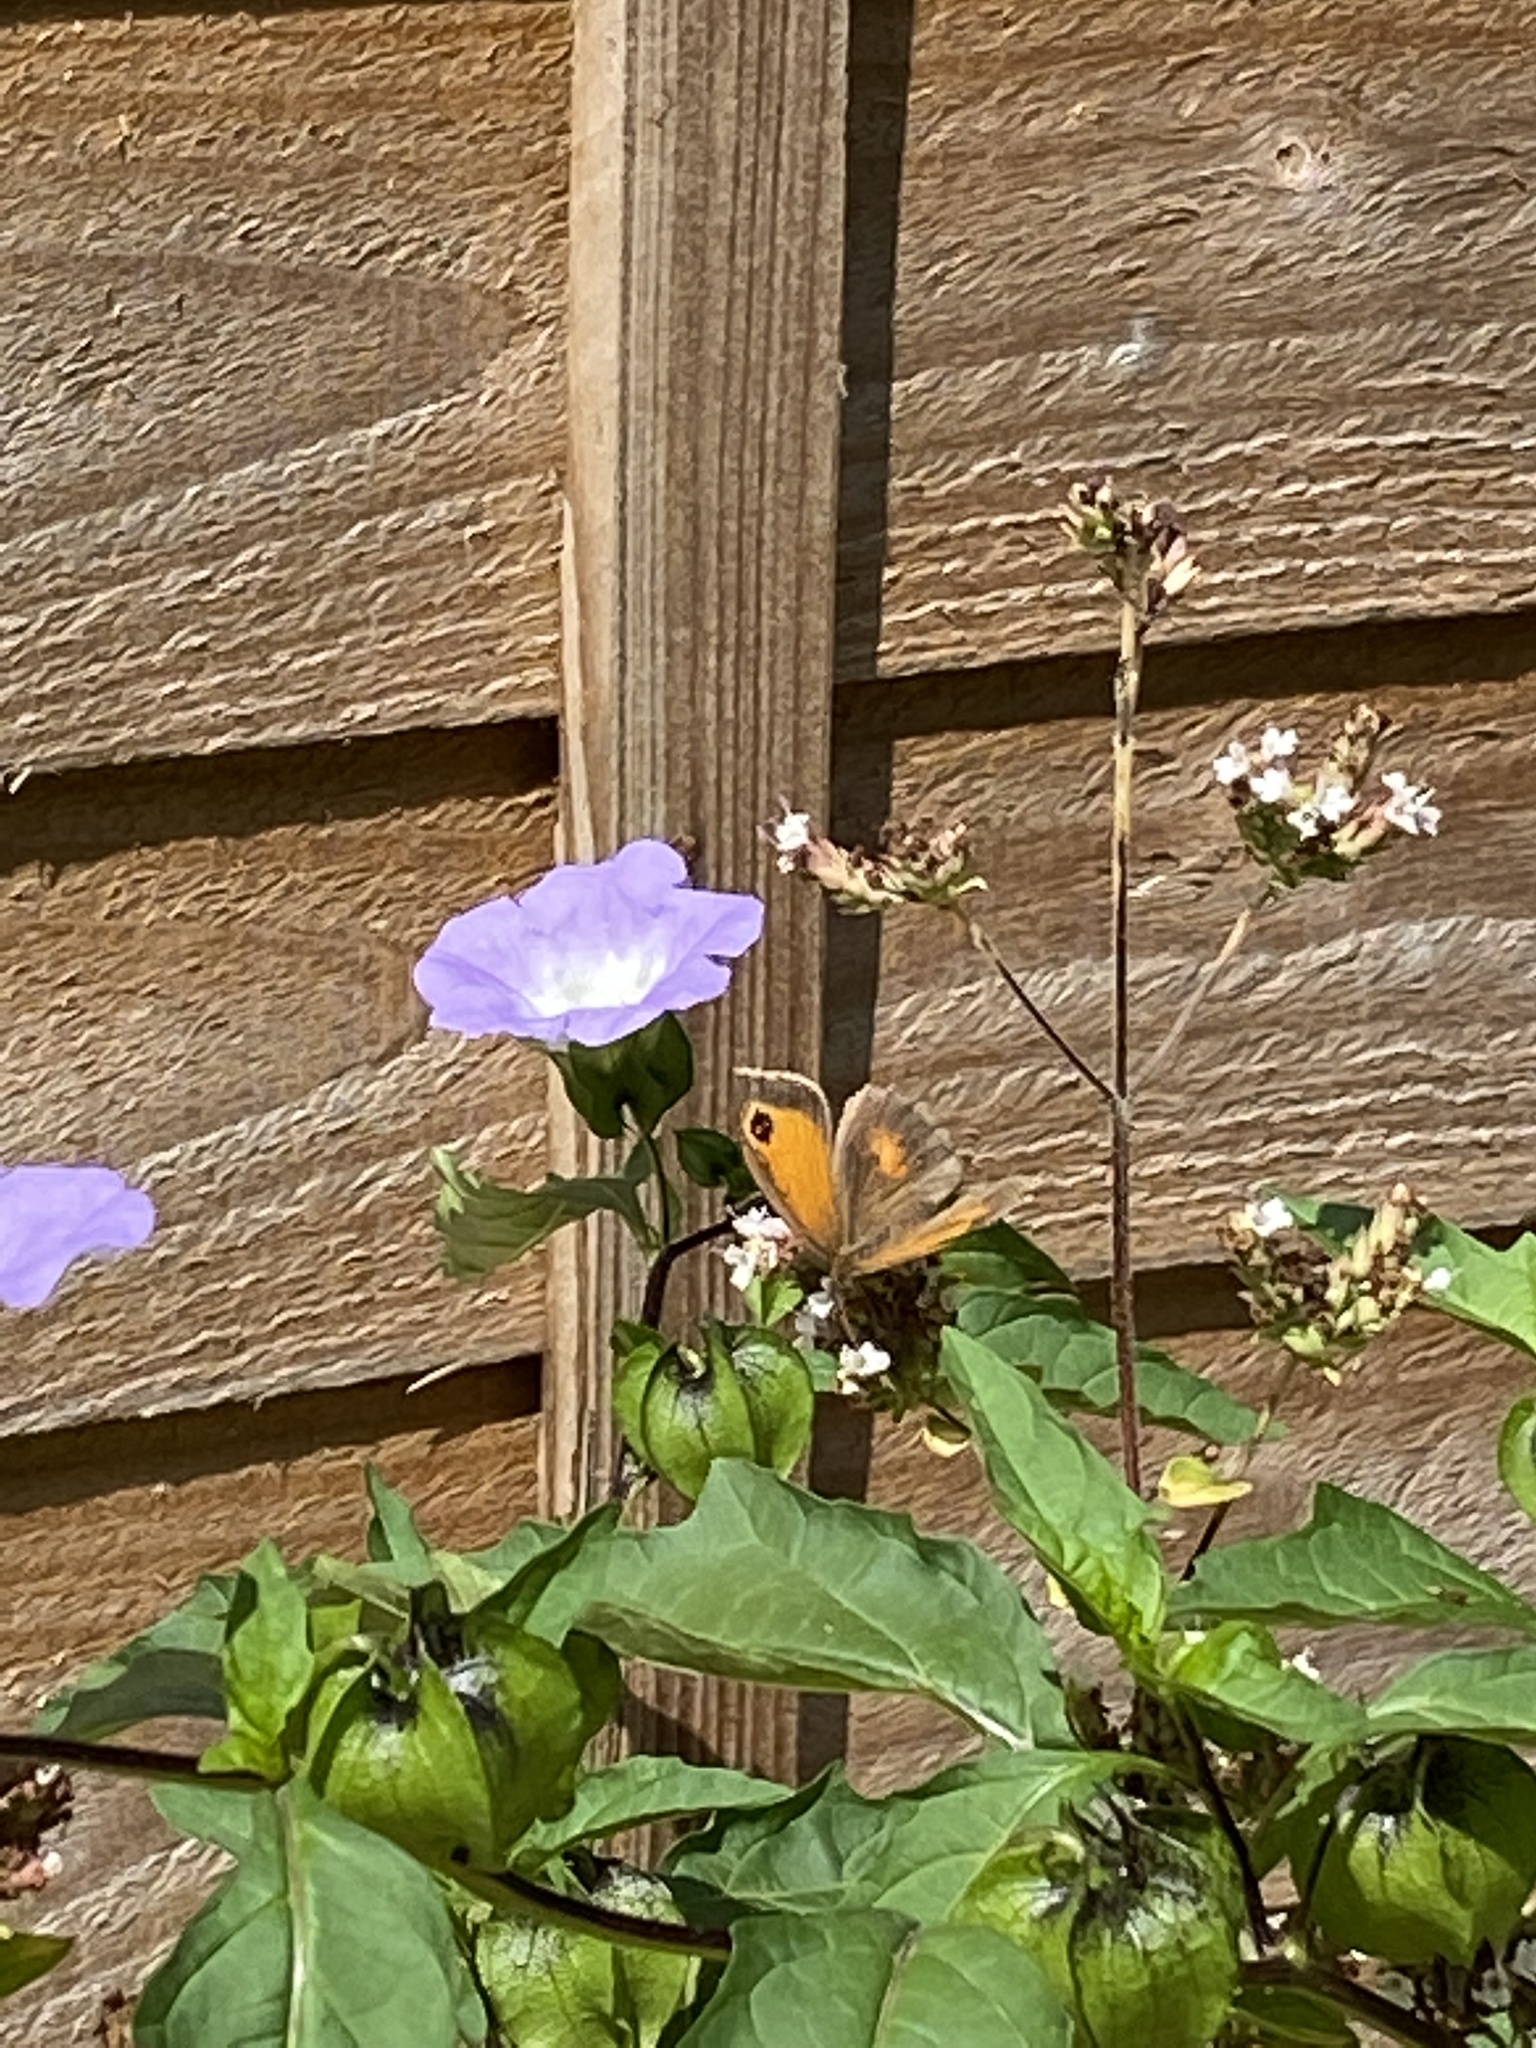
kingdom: Animalia
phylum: Arthropoda
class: Insecta
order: Lepidoptera
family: Nymphalidae
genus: Pyronia
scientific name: Pyronia tithonus
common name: Gatekeeper
